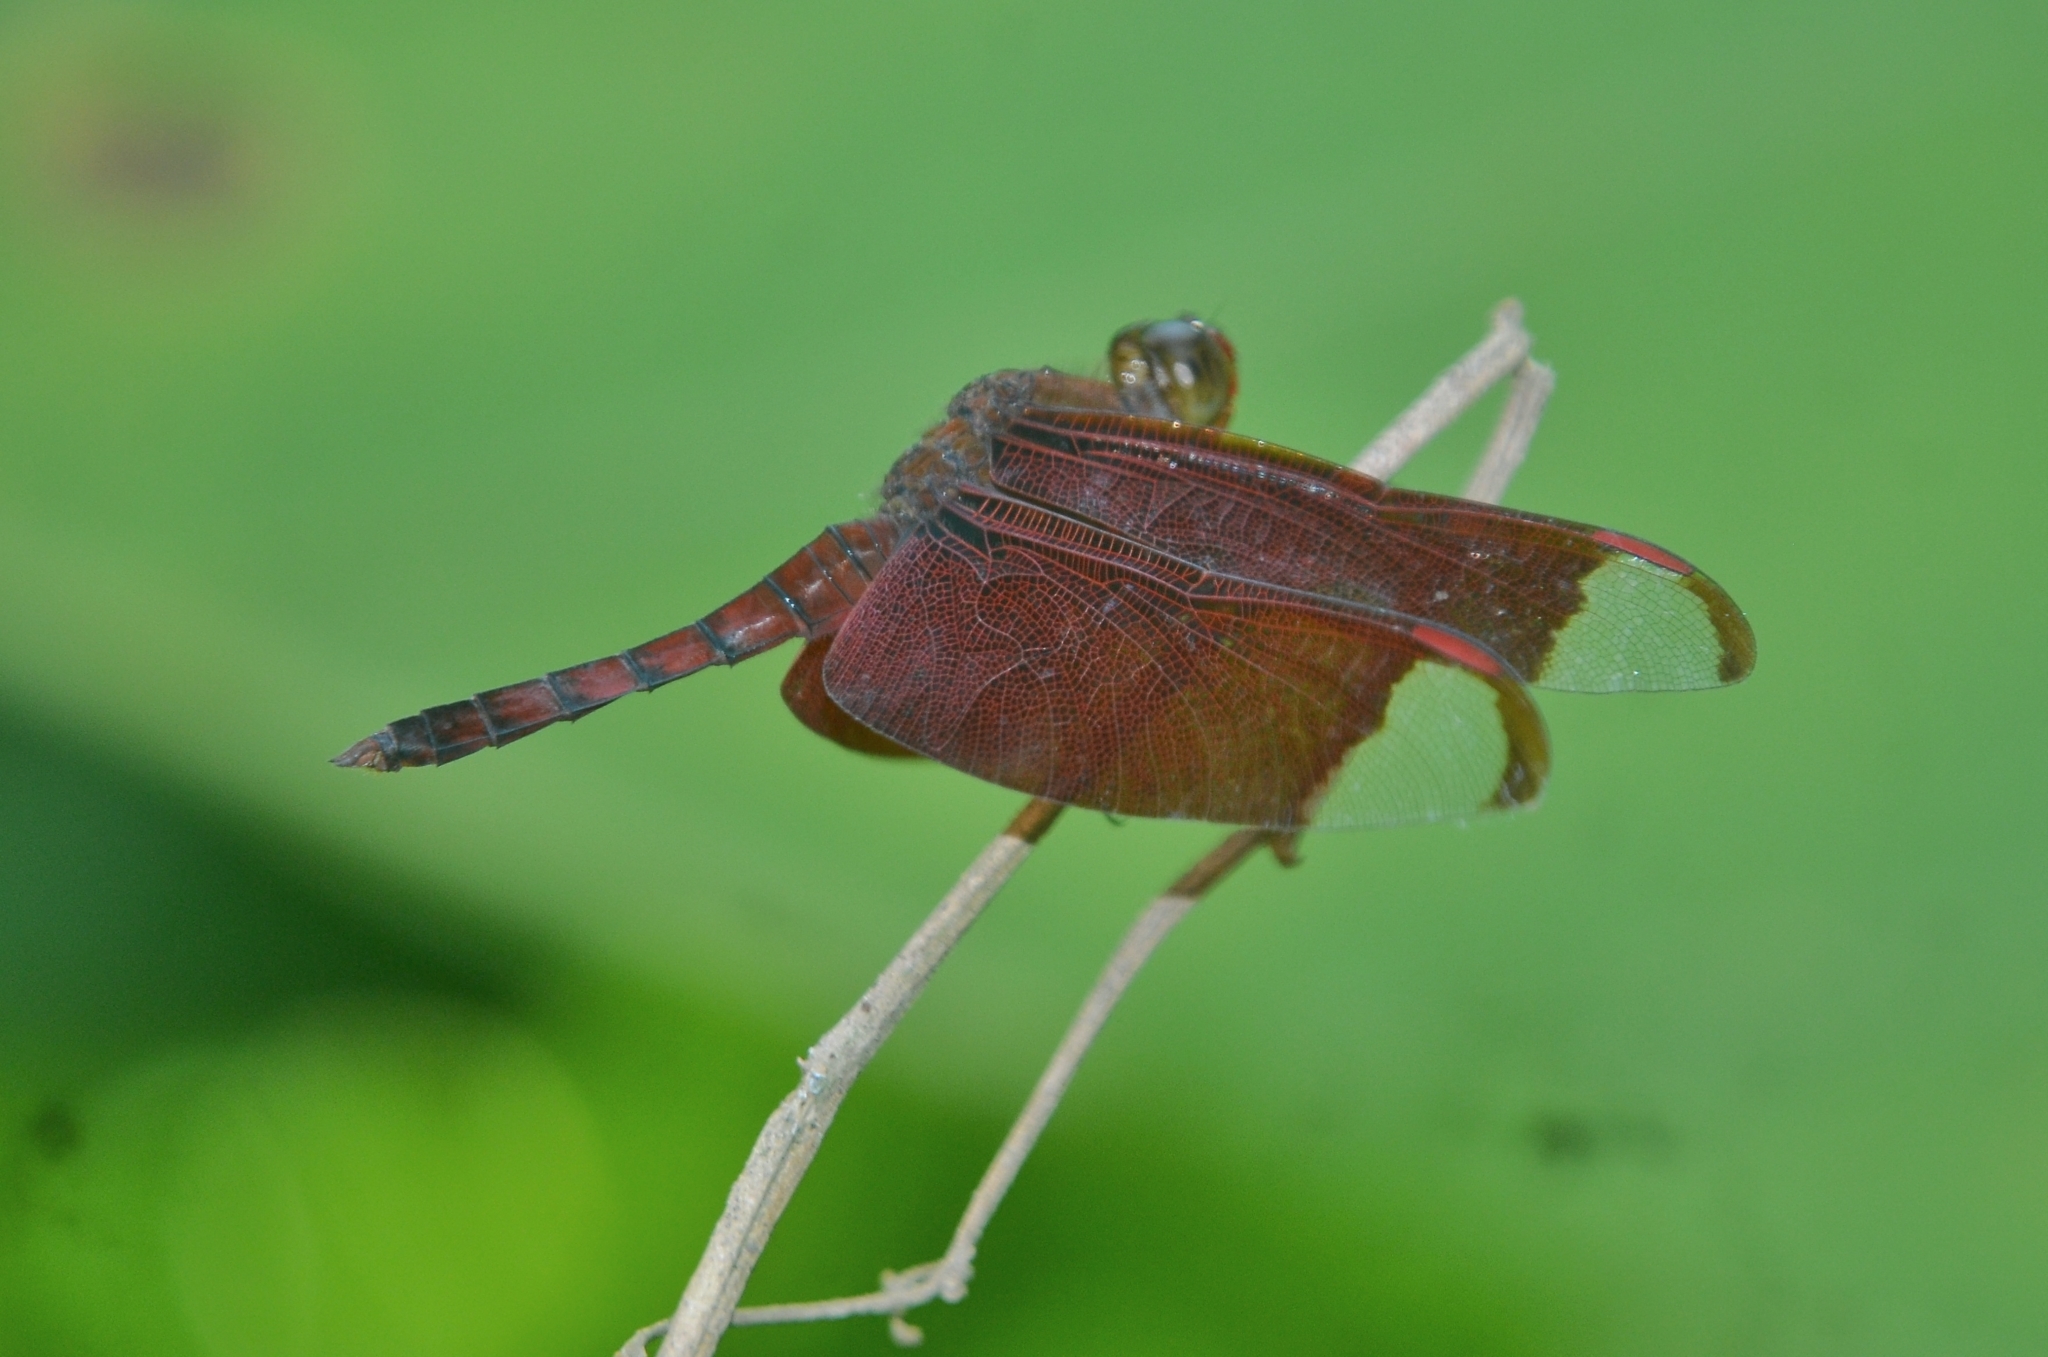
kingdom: Animalia
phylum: Arthropoda
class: Insecta
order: Odonata
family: Libellulidae
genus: Neurothemis
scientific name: Neurothemis fulvia
